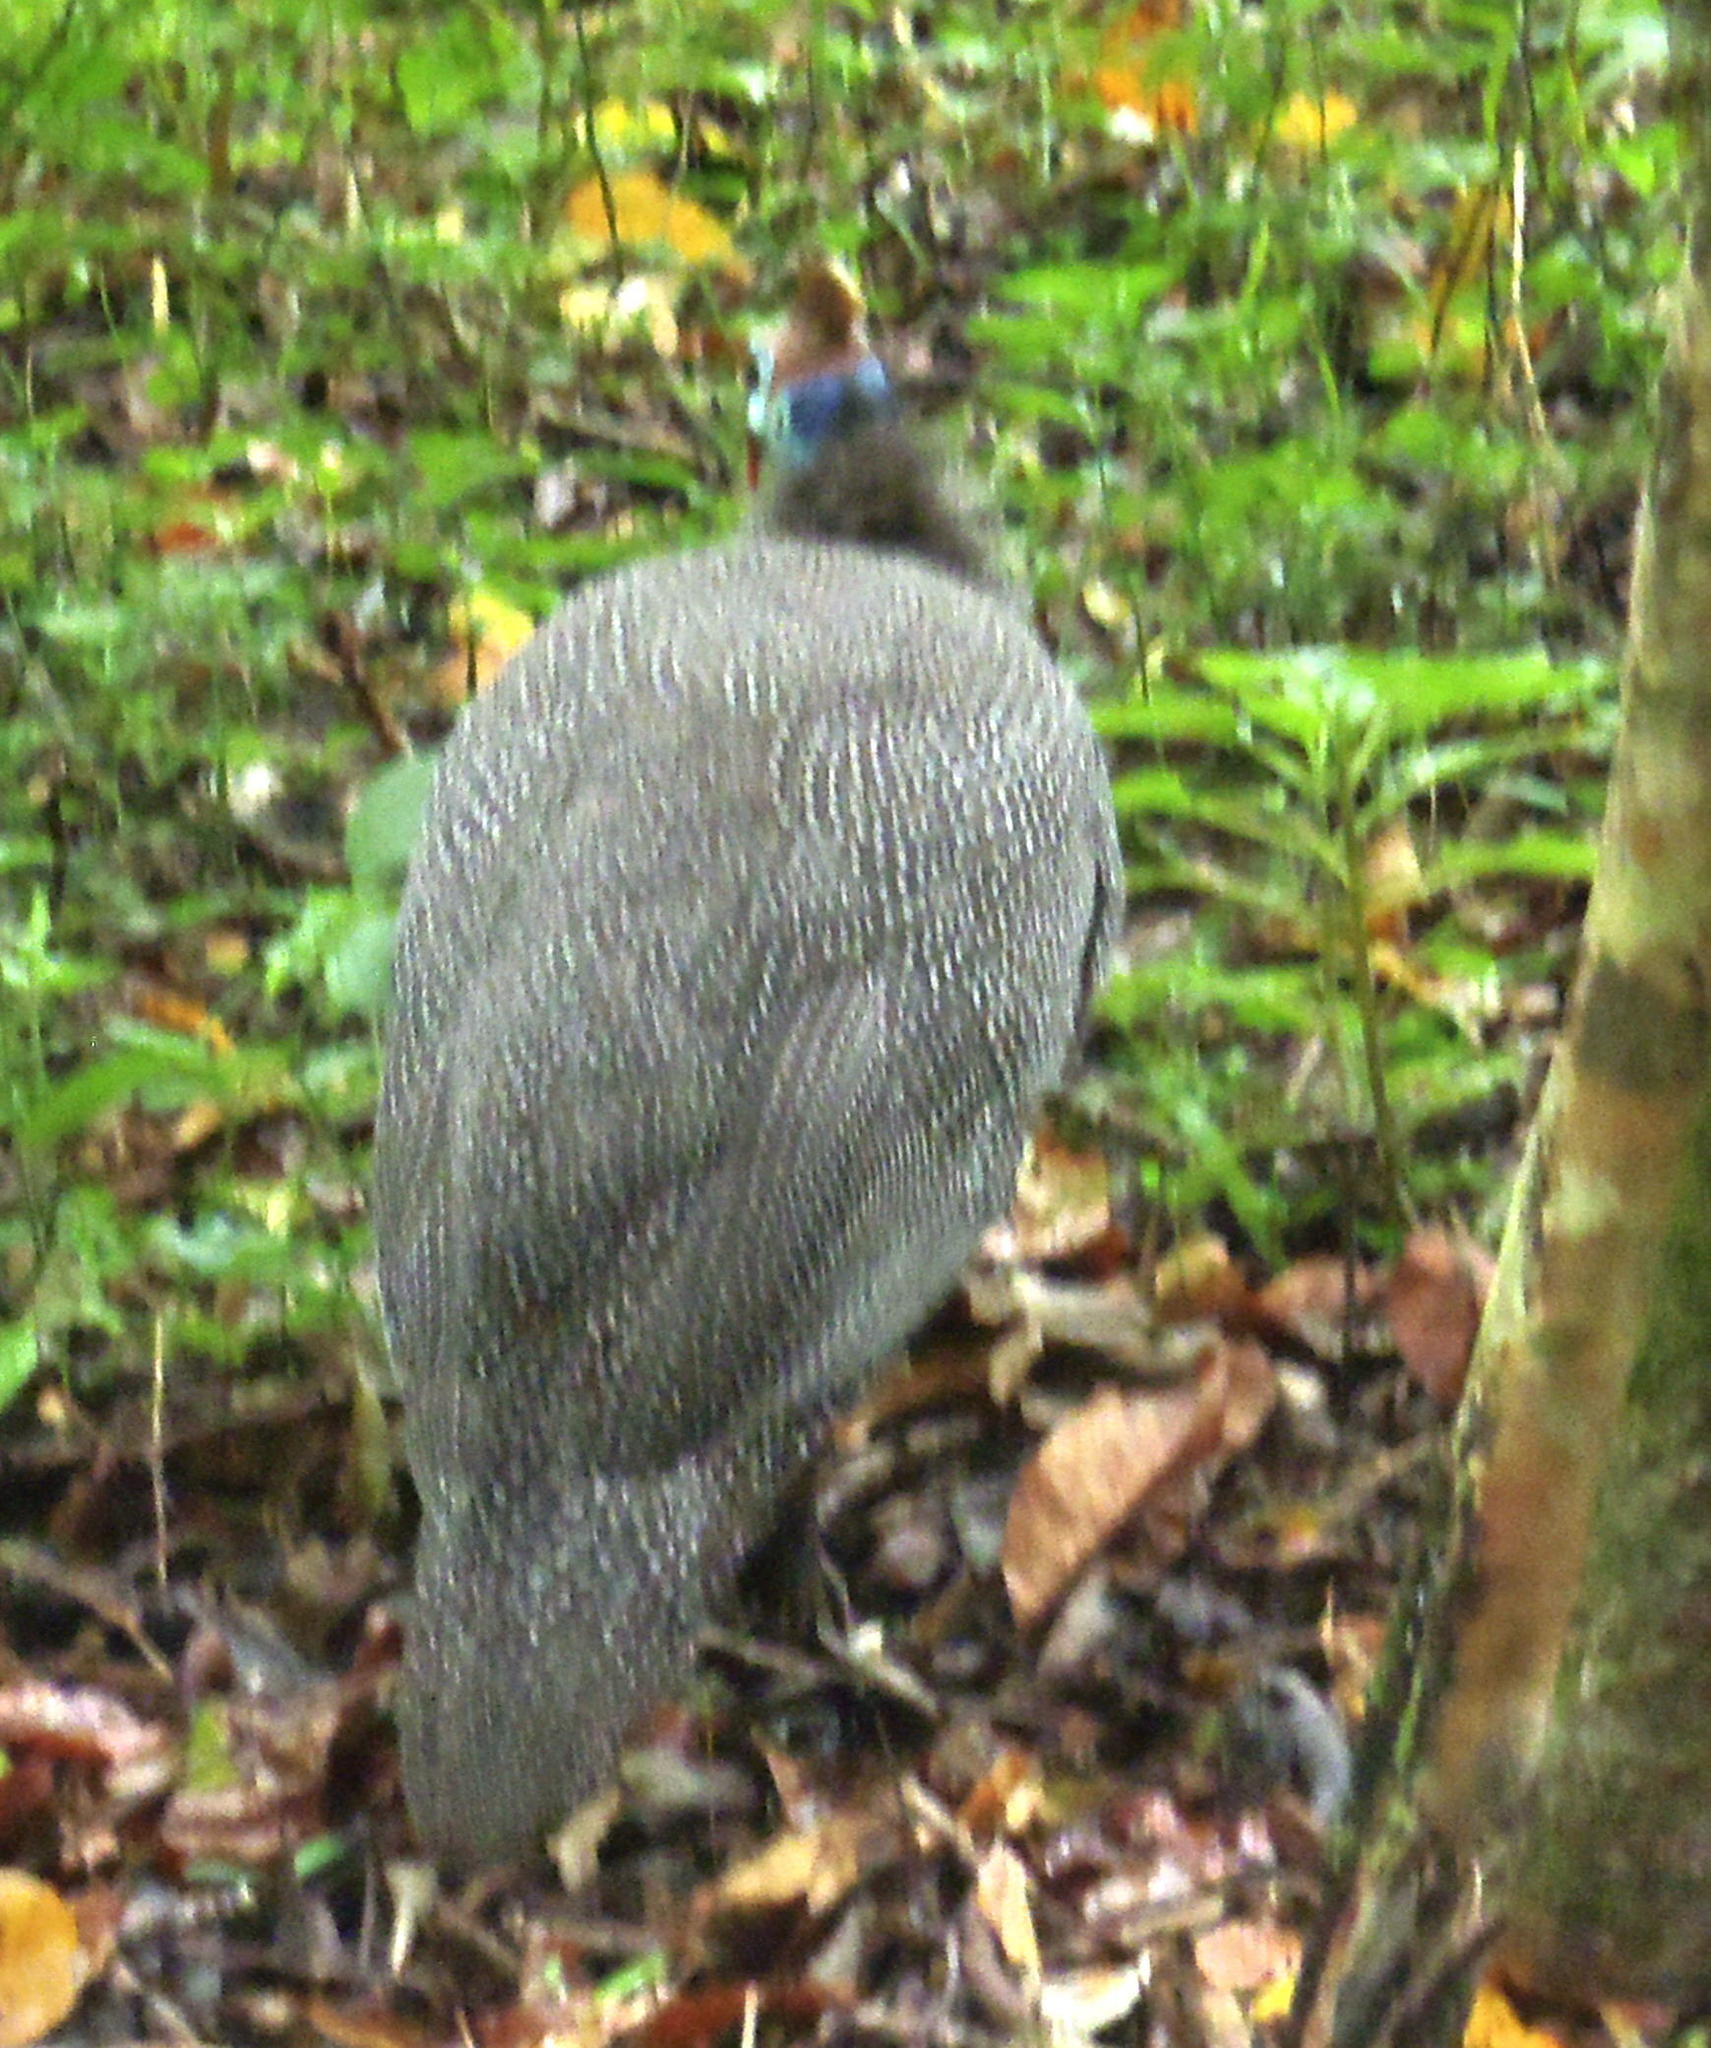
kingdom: Animalia
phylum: Chordata
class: Aves
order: Galliformes
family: Numididae
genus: Numida
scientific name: Numida meleagris
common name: Helmeted guineafowl
